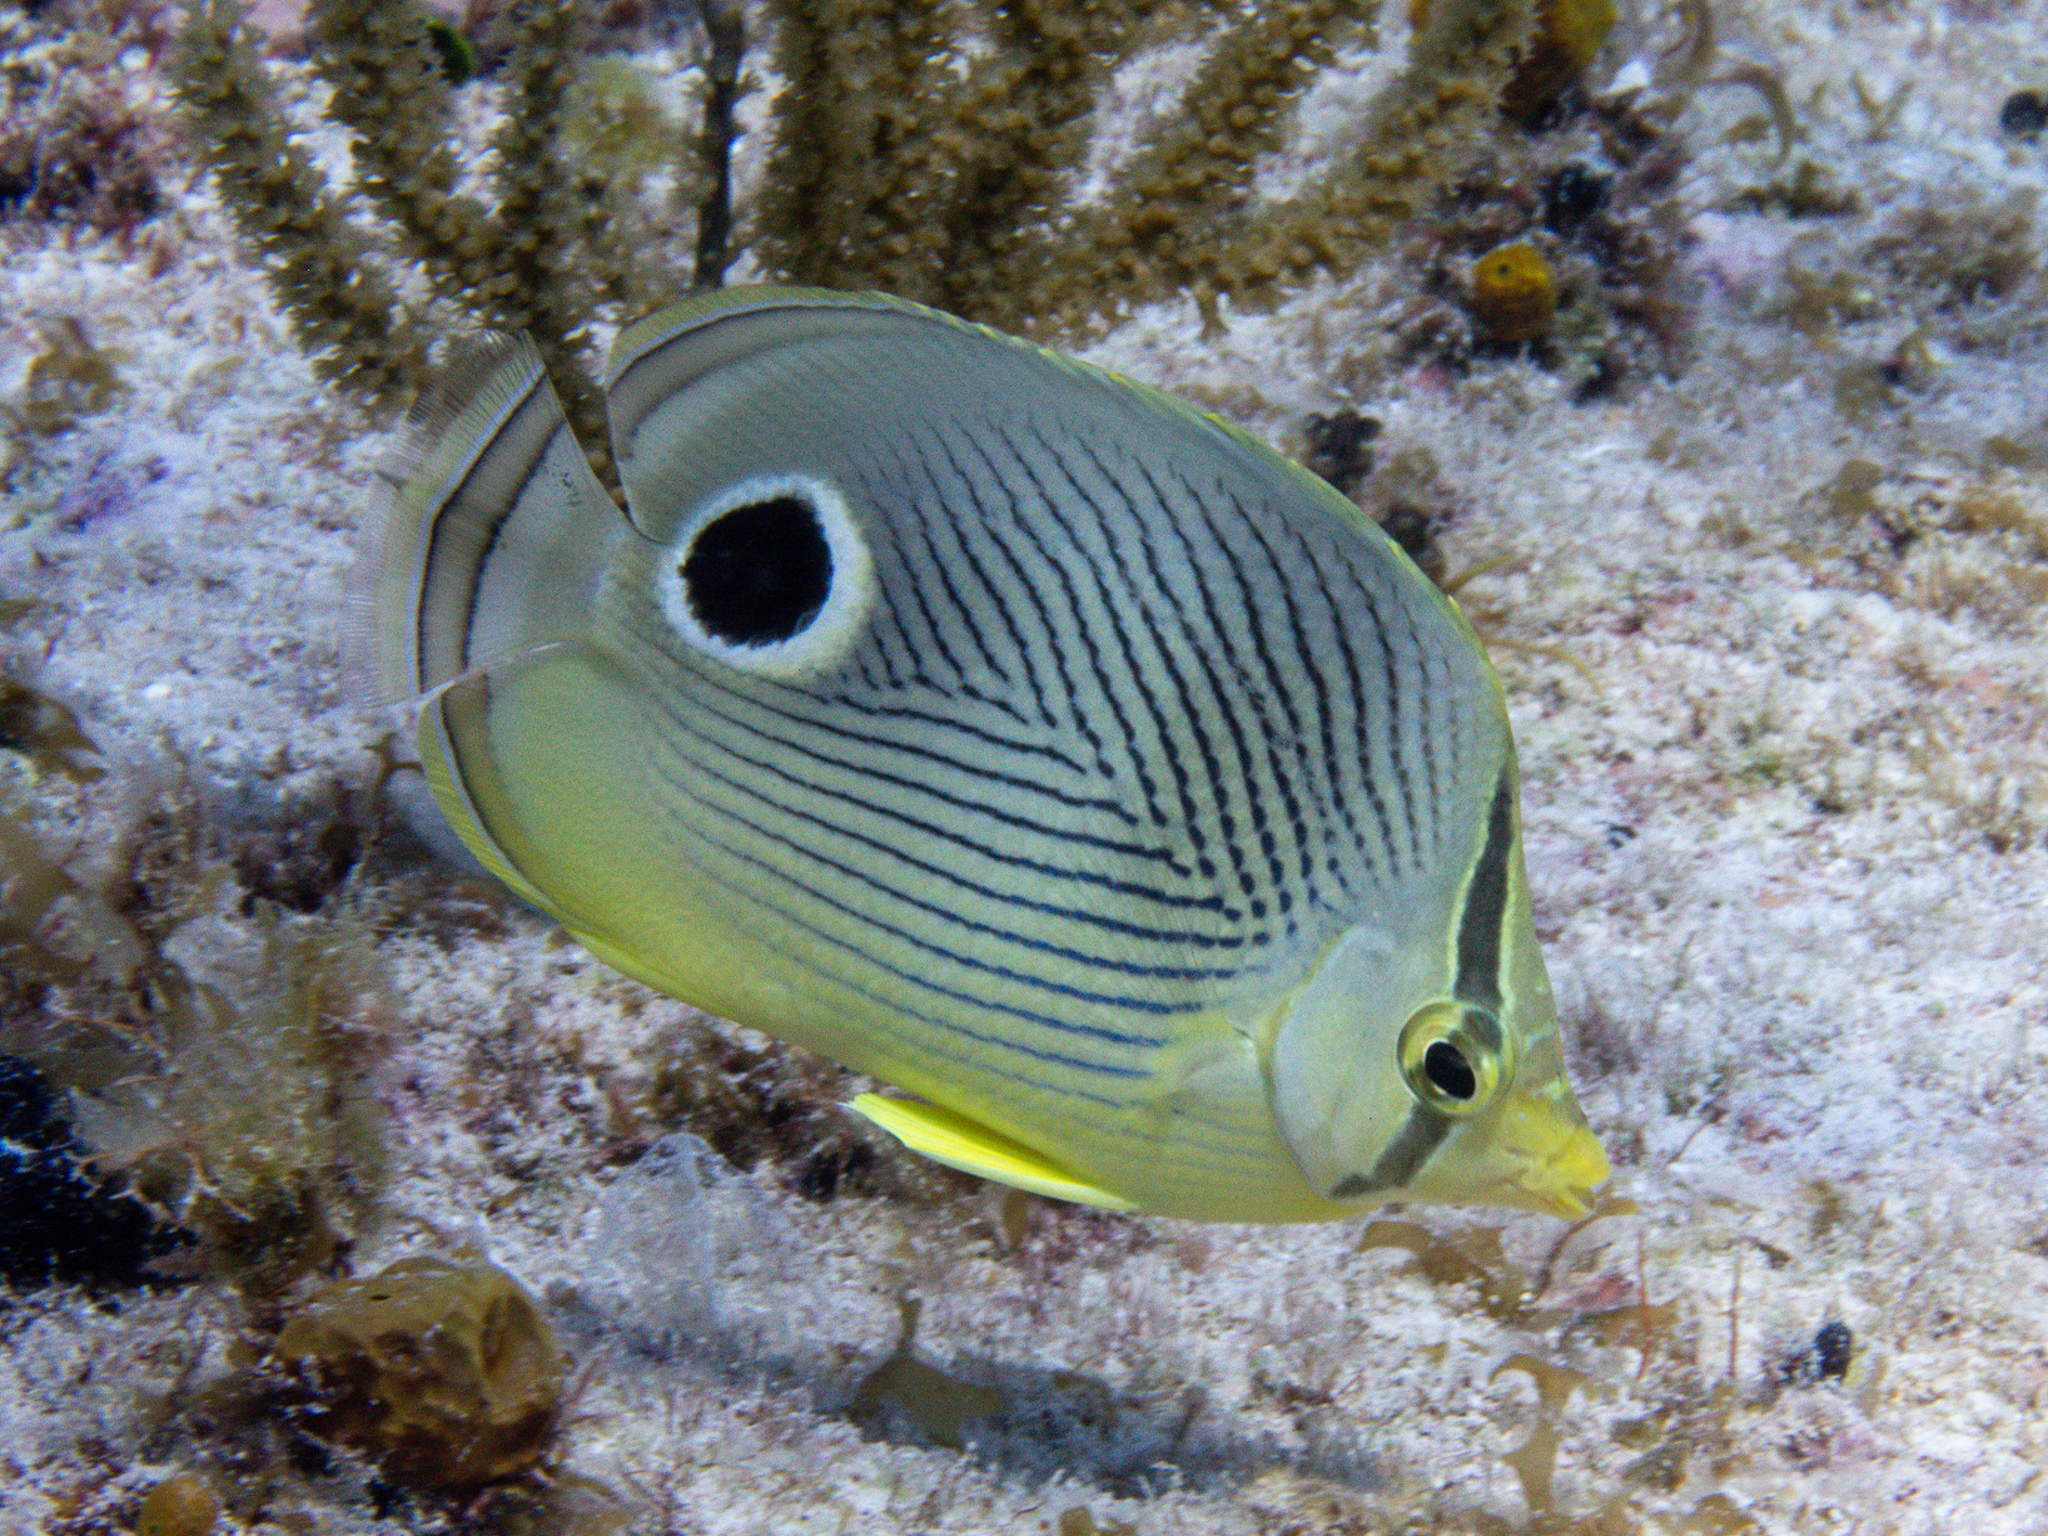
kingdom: Animalia
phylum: Chordata
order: Perciformes
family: Chaetodontidae
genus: Chaetodon
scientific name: Chaetodon capistratus
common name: Kete
